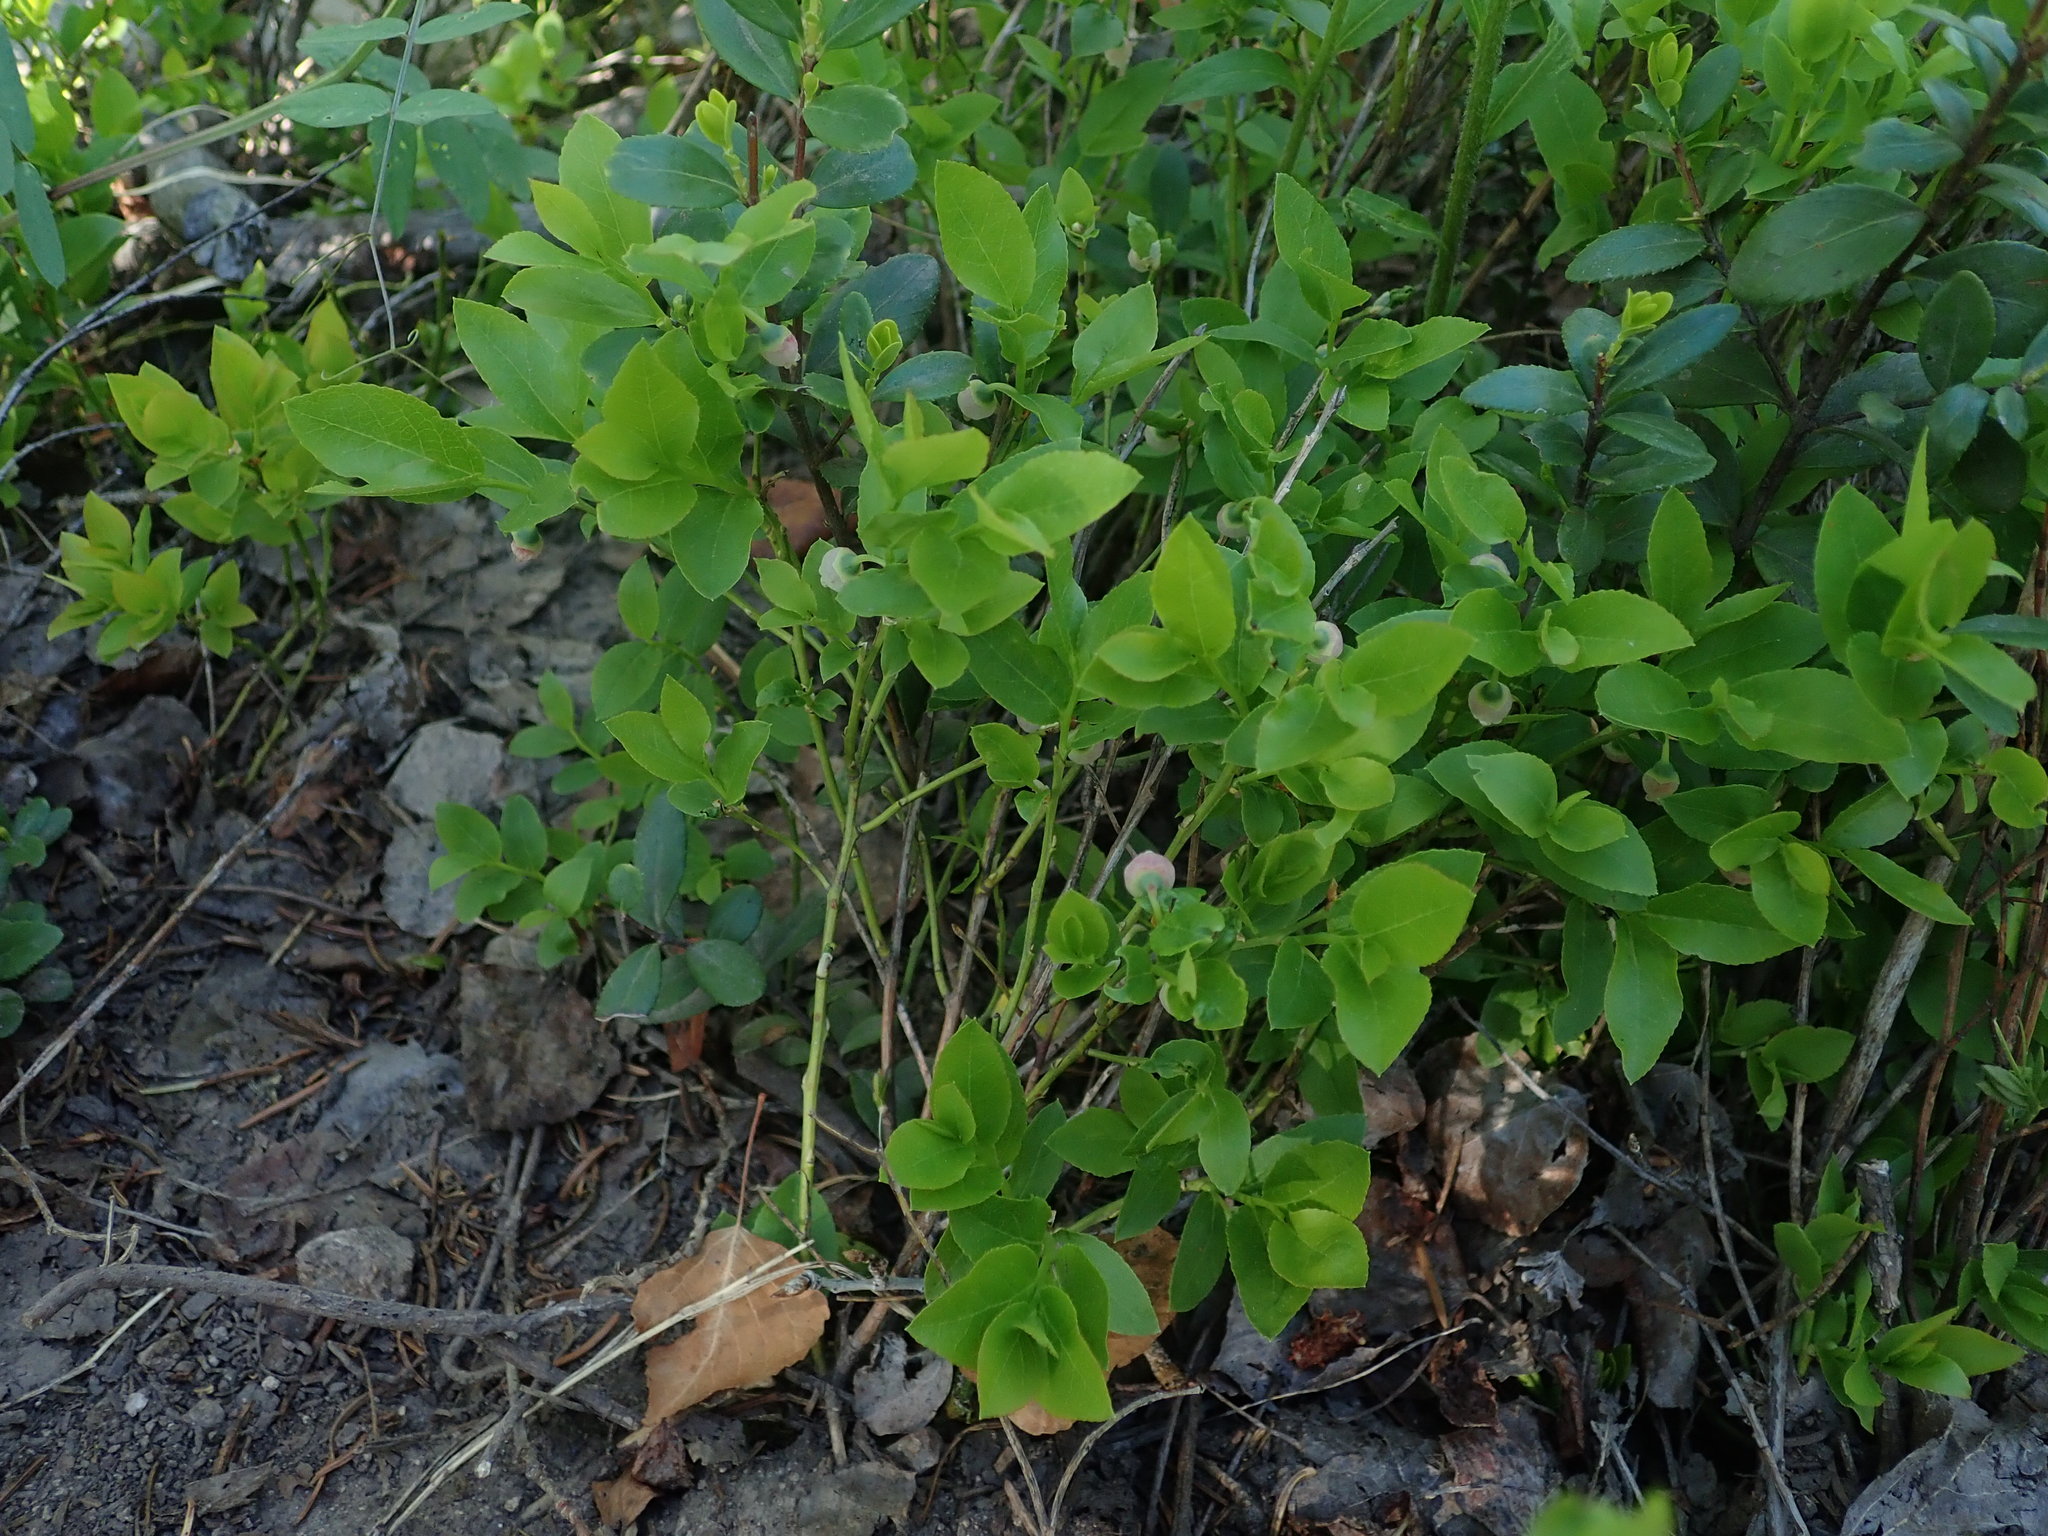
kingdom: Plantae
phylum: Tracheophyta
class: Magnoliopsida
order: Ericales
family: Ericaceae
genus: Vaccinium
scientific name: Vaccinium myrtillus
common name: Bilberry
